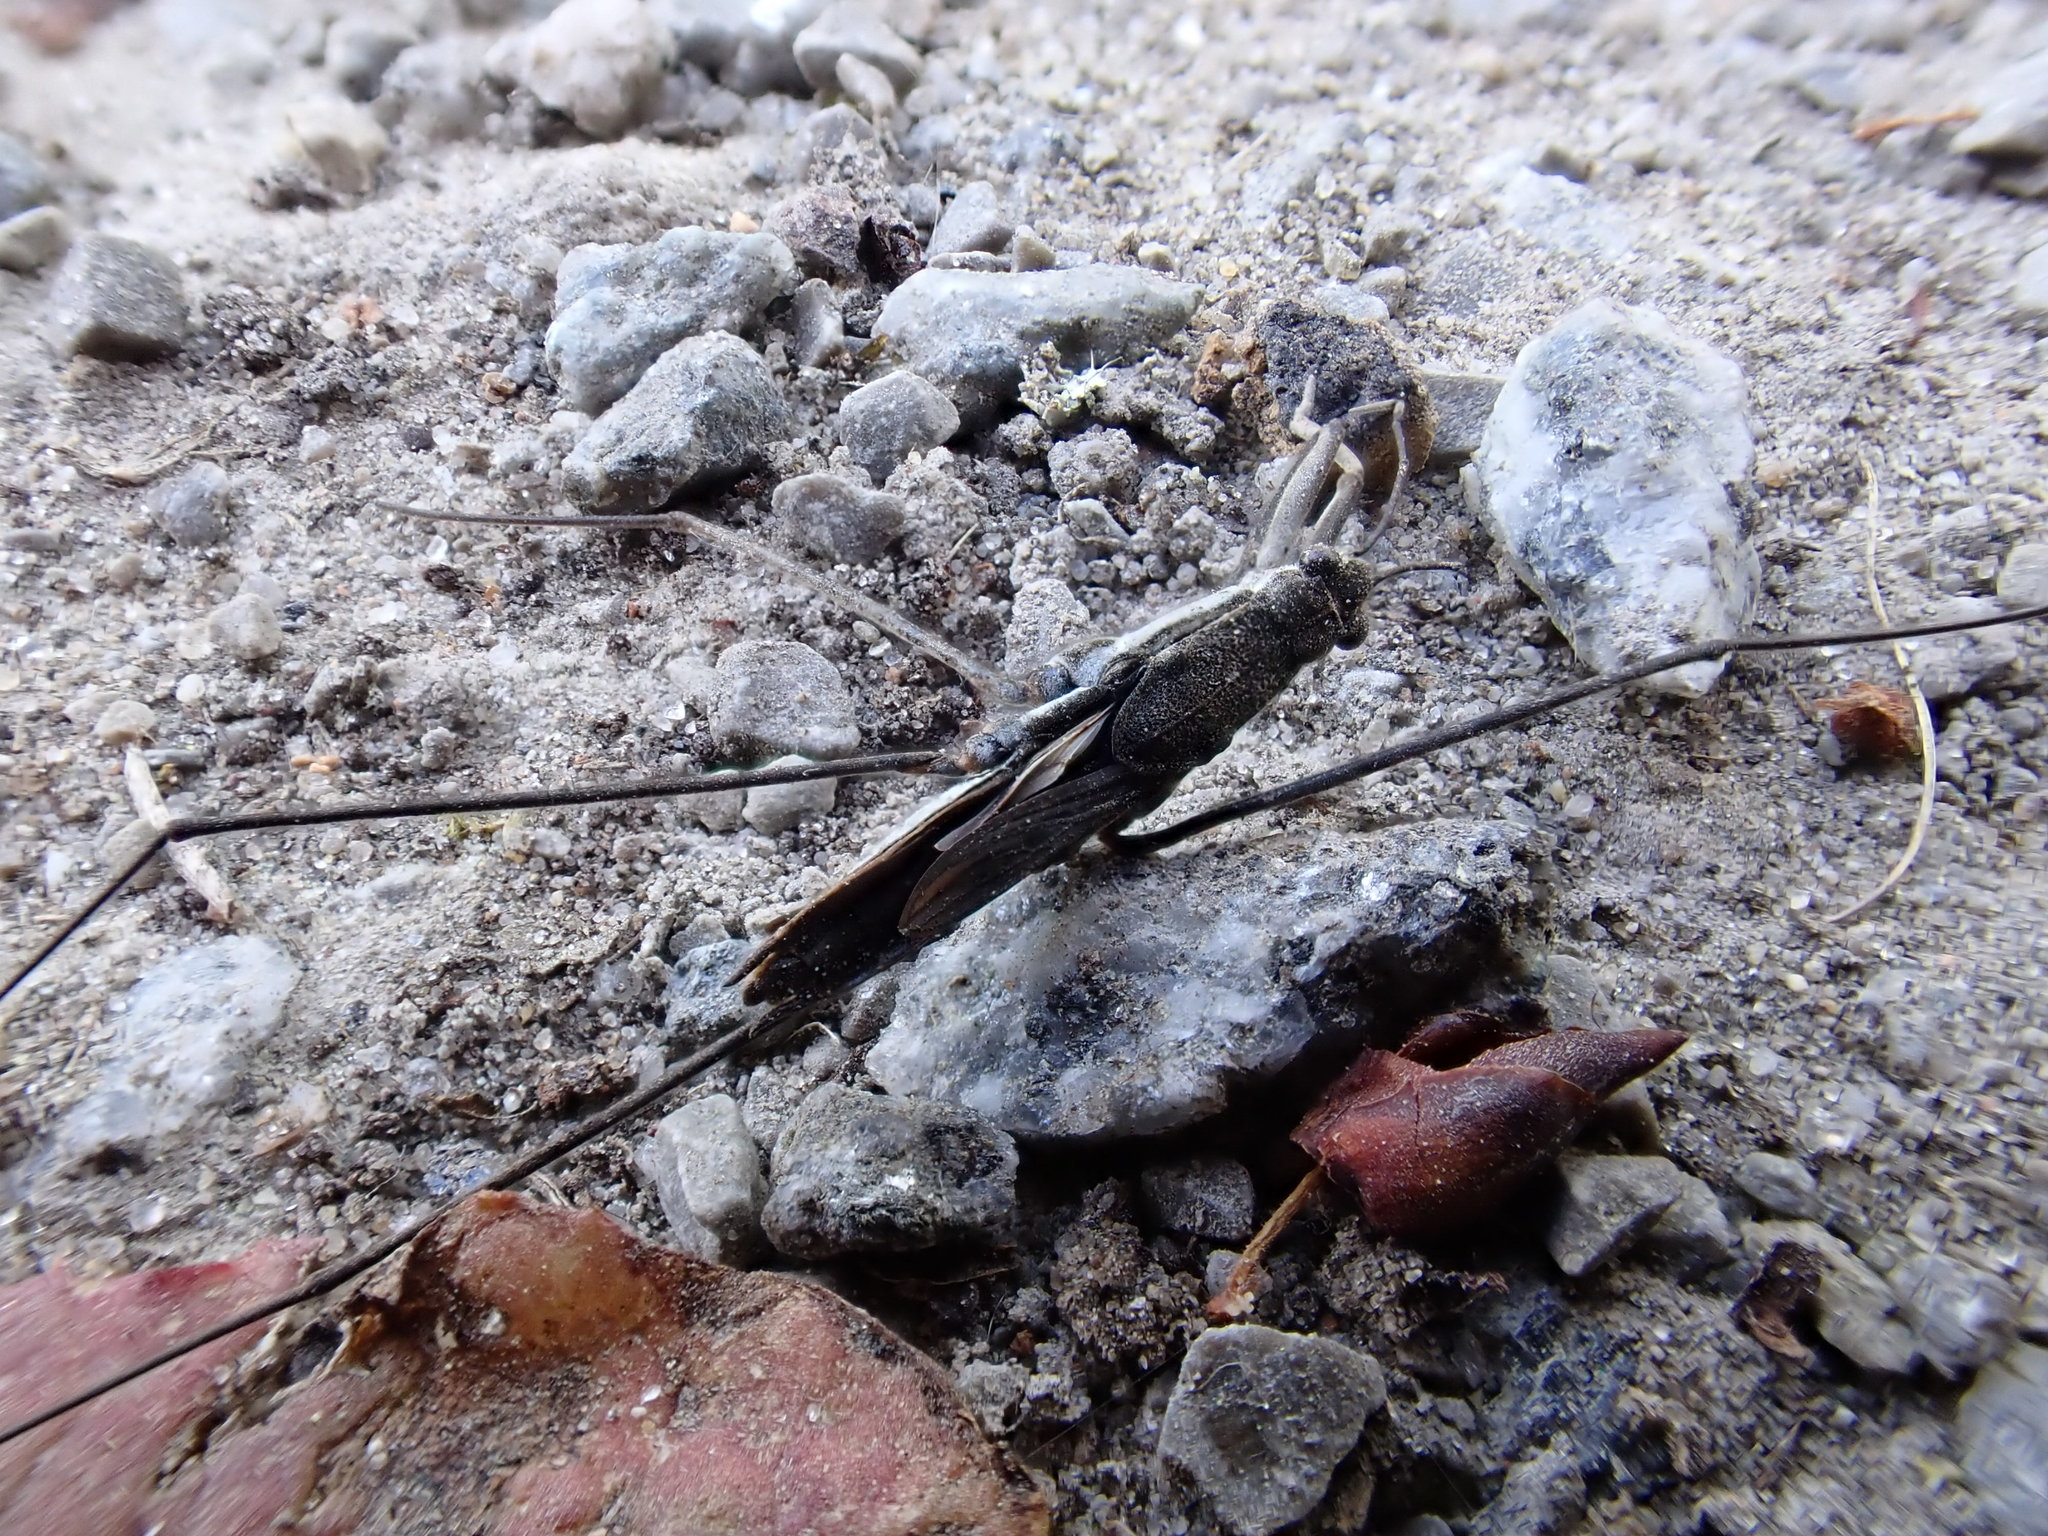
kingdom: Animalia
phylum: Arthropoda
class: Insecta
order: Hemiptera
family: Gerridae
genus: Aquarius
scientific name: Aquarius paludum
